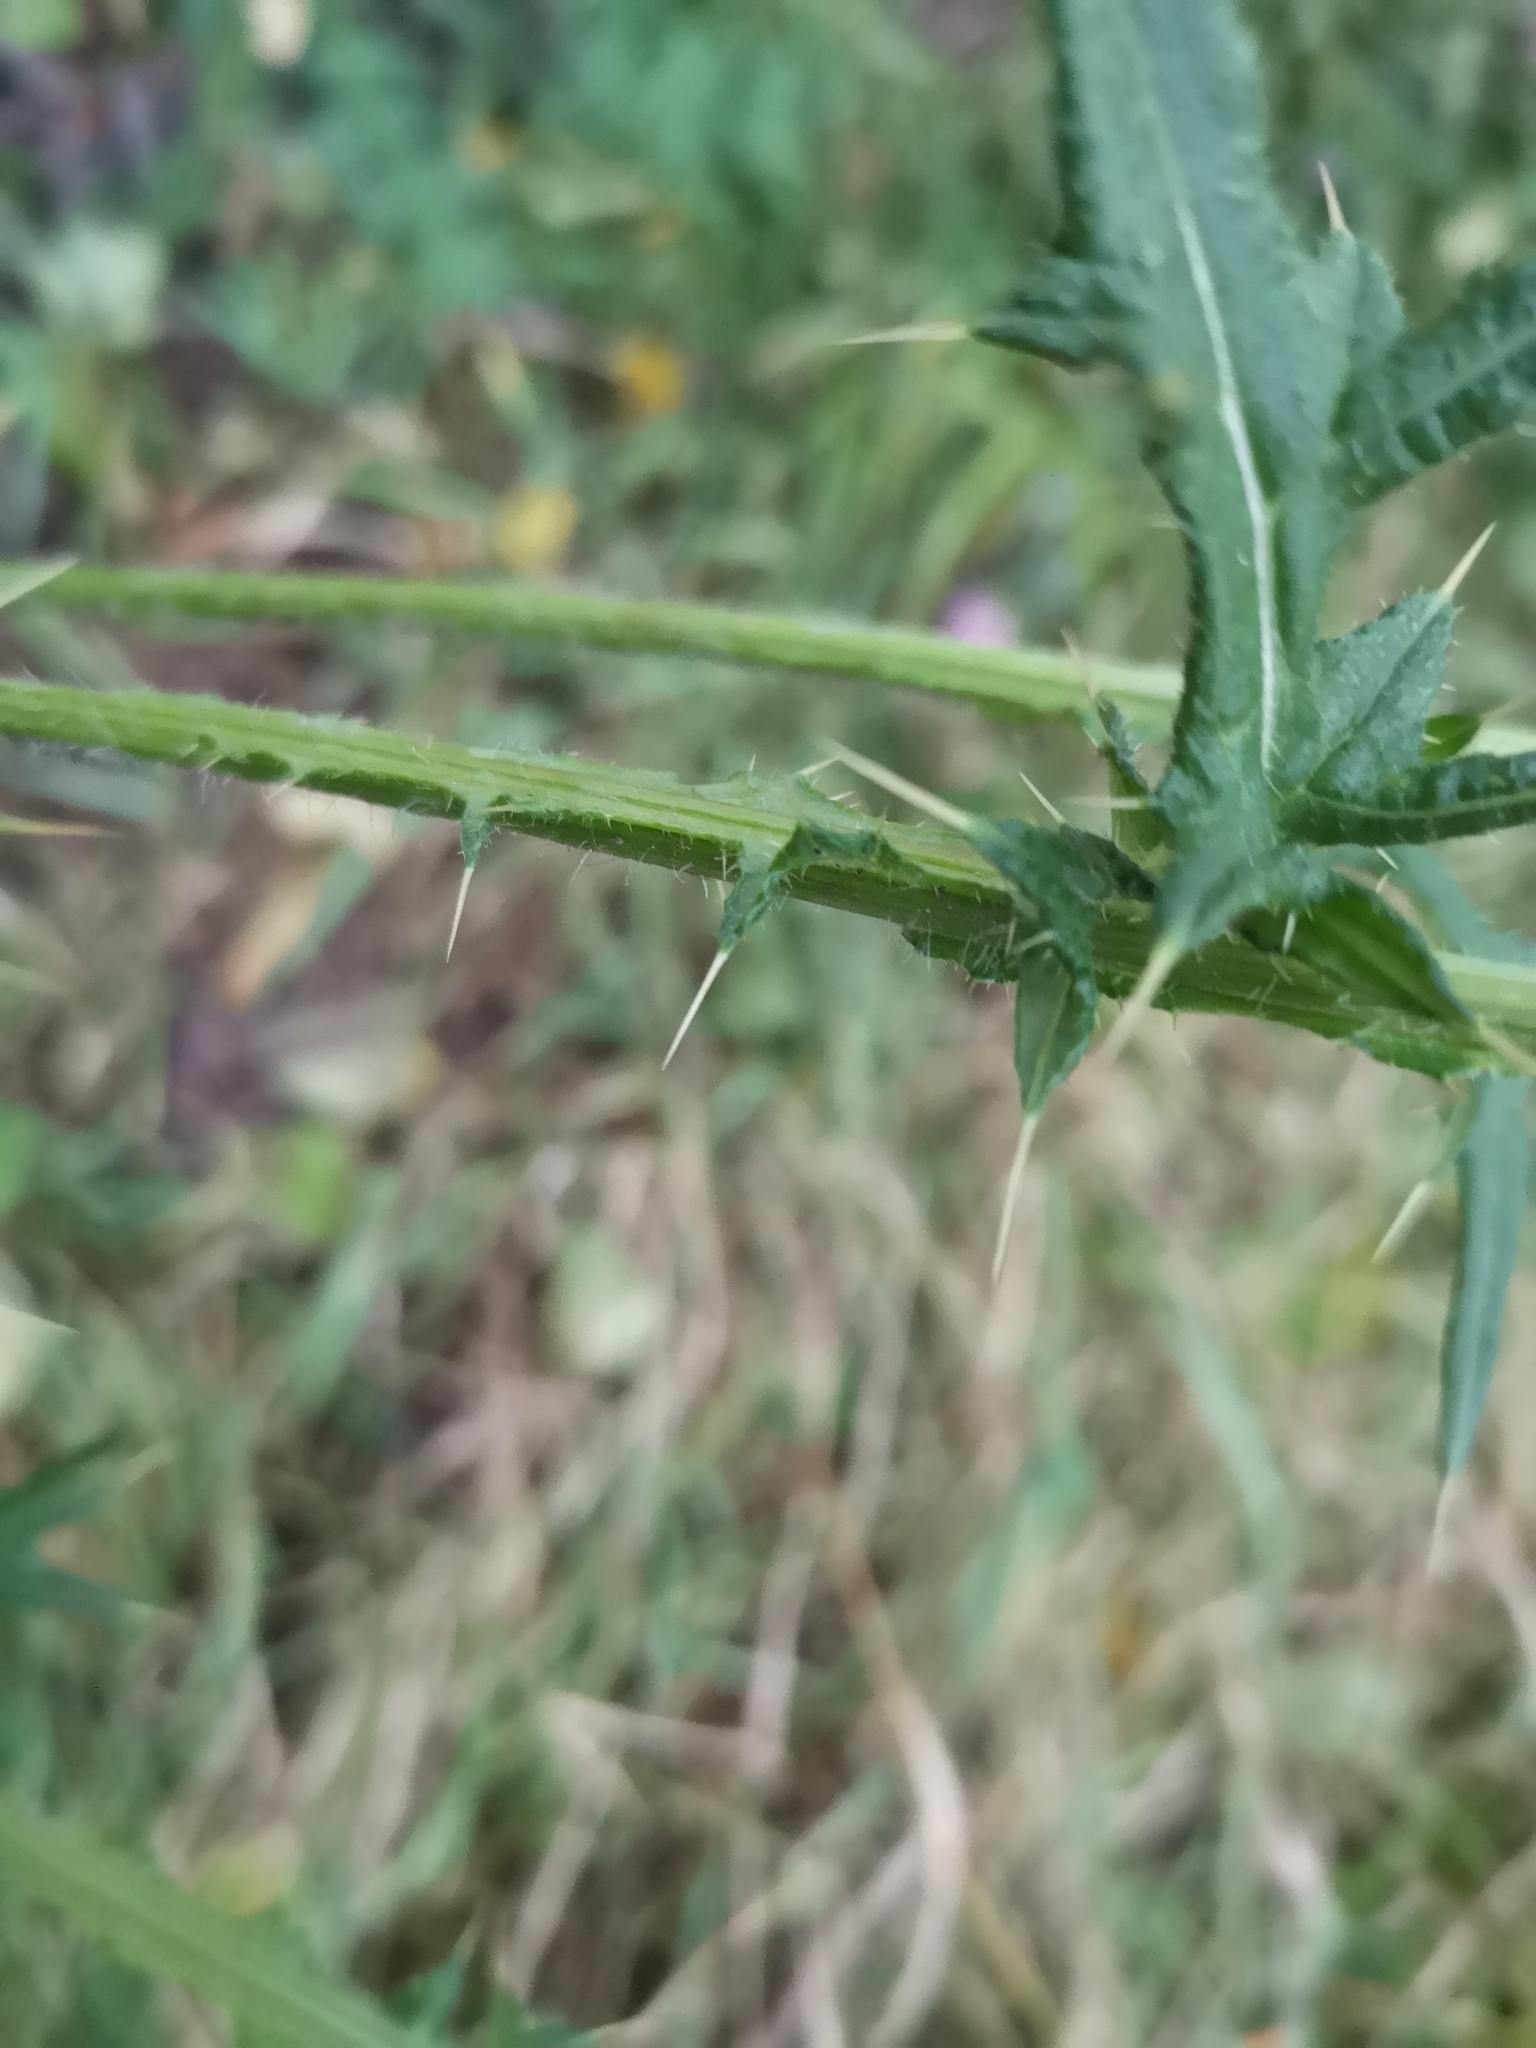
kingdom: Plantae
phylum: Tracheophyta
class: Magnoliopsida
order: Asterales
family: Asteraceae
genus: Cirsium
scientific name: Cirsium vulgare
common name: Bull thistle
